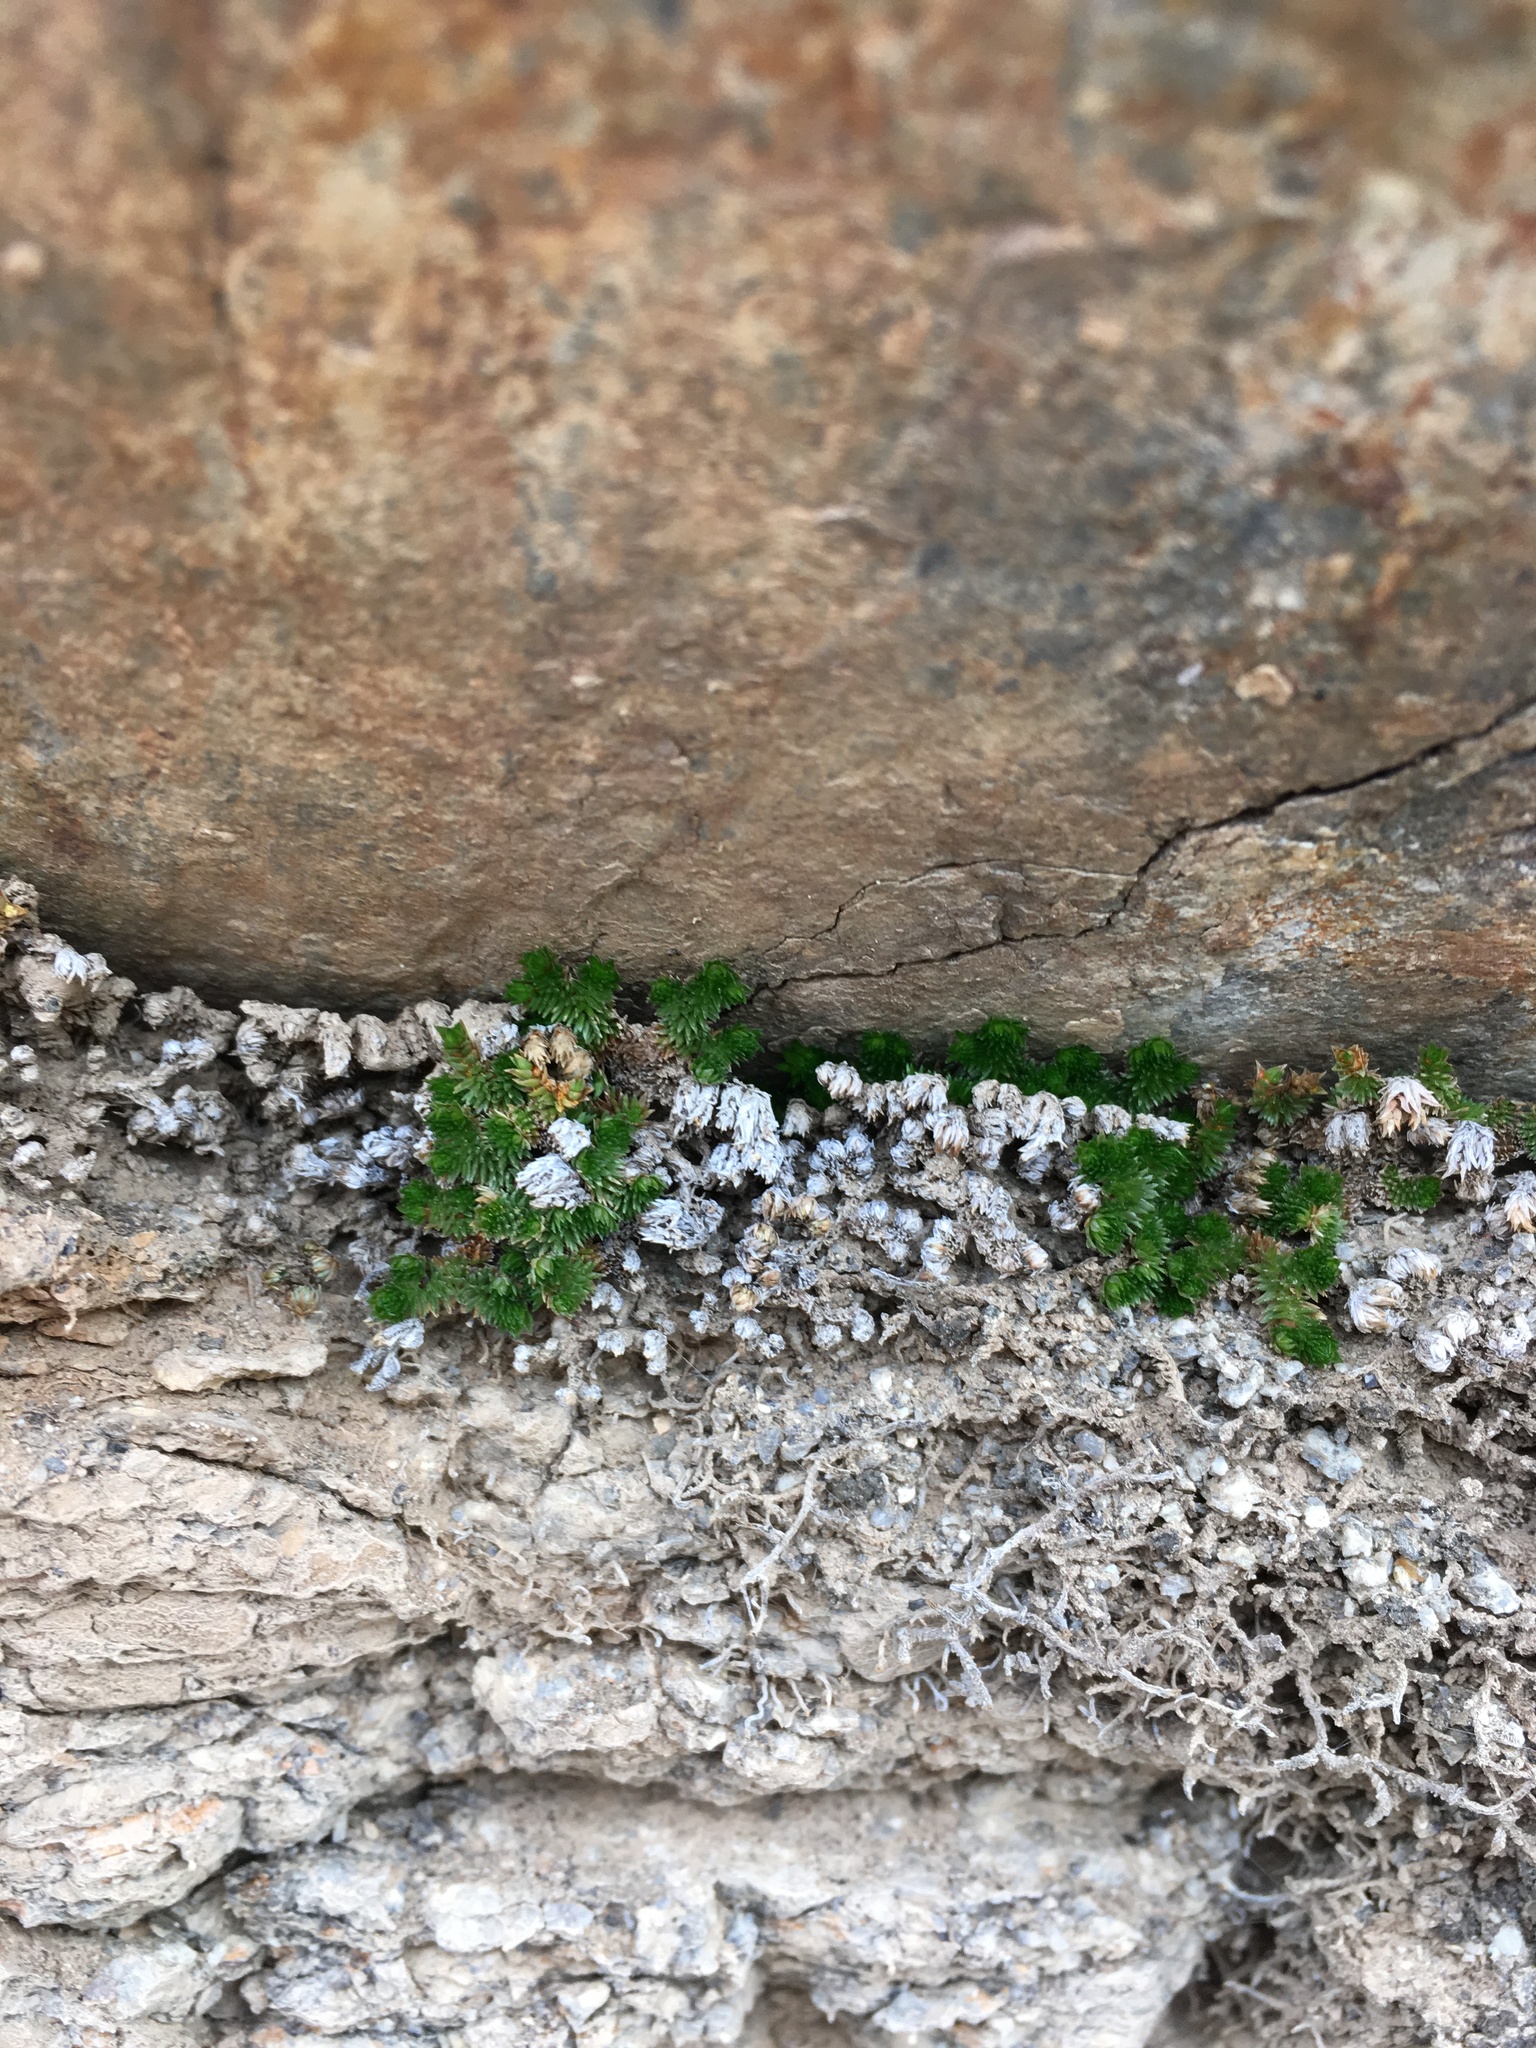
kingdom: Plantae
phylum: Tracheophyta
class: Lycopodiopsida
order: Selaginellales
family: Selaginellaceae
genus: Selaginella
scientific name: Selaginella eremophila
